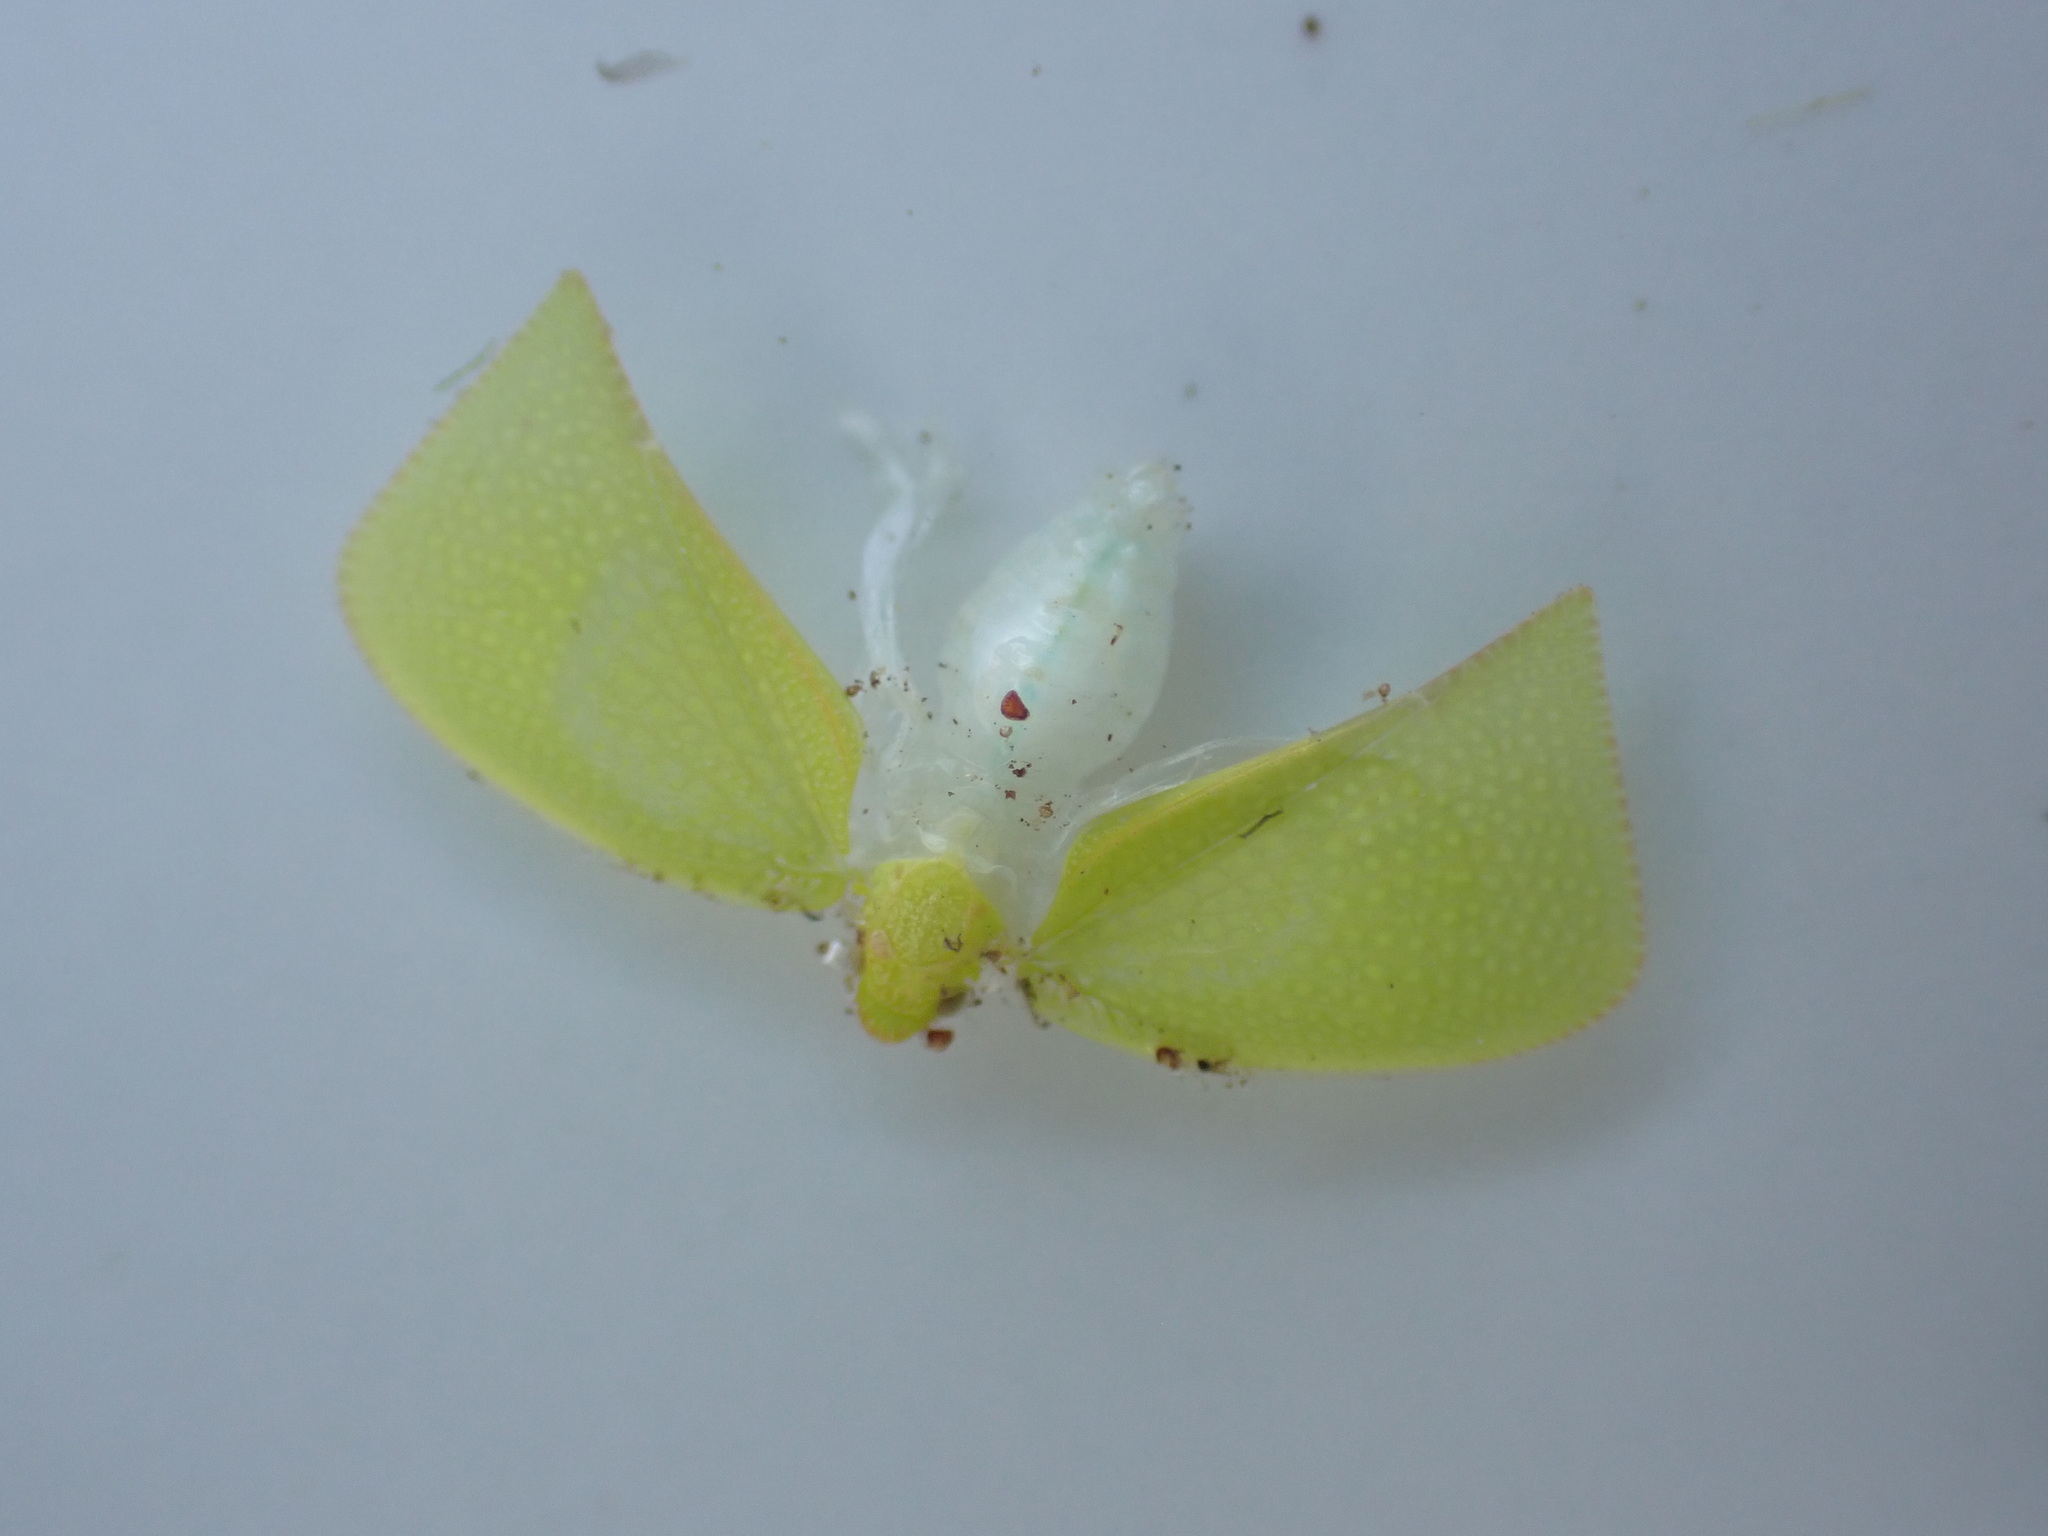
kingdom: Animalia
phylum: Arthropoda
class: Insecta
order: Hemiptera
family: Flatidae
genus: Siphanta
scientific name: Siphanta acuta
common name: Torpedo bug
